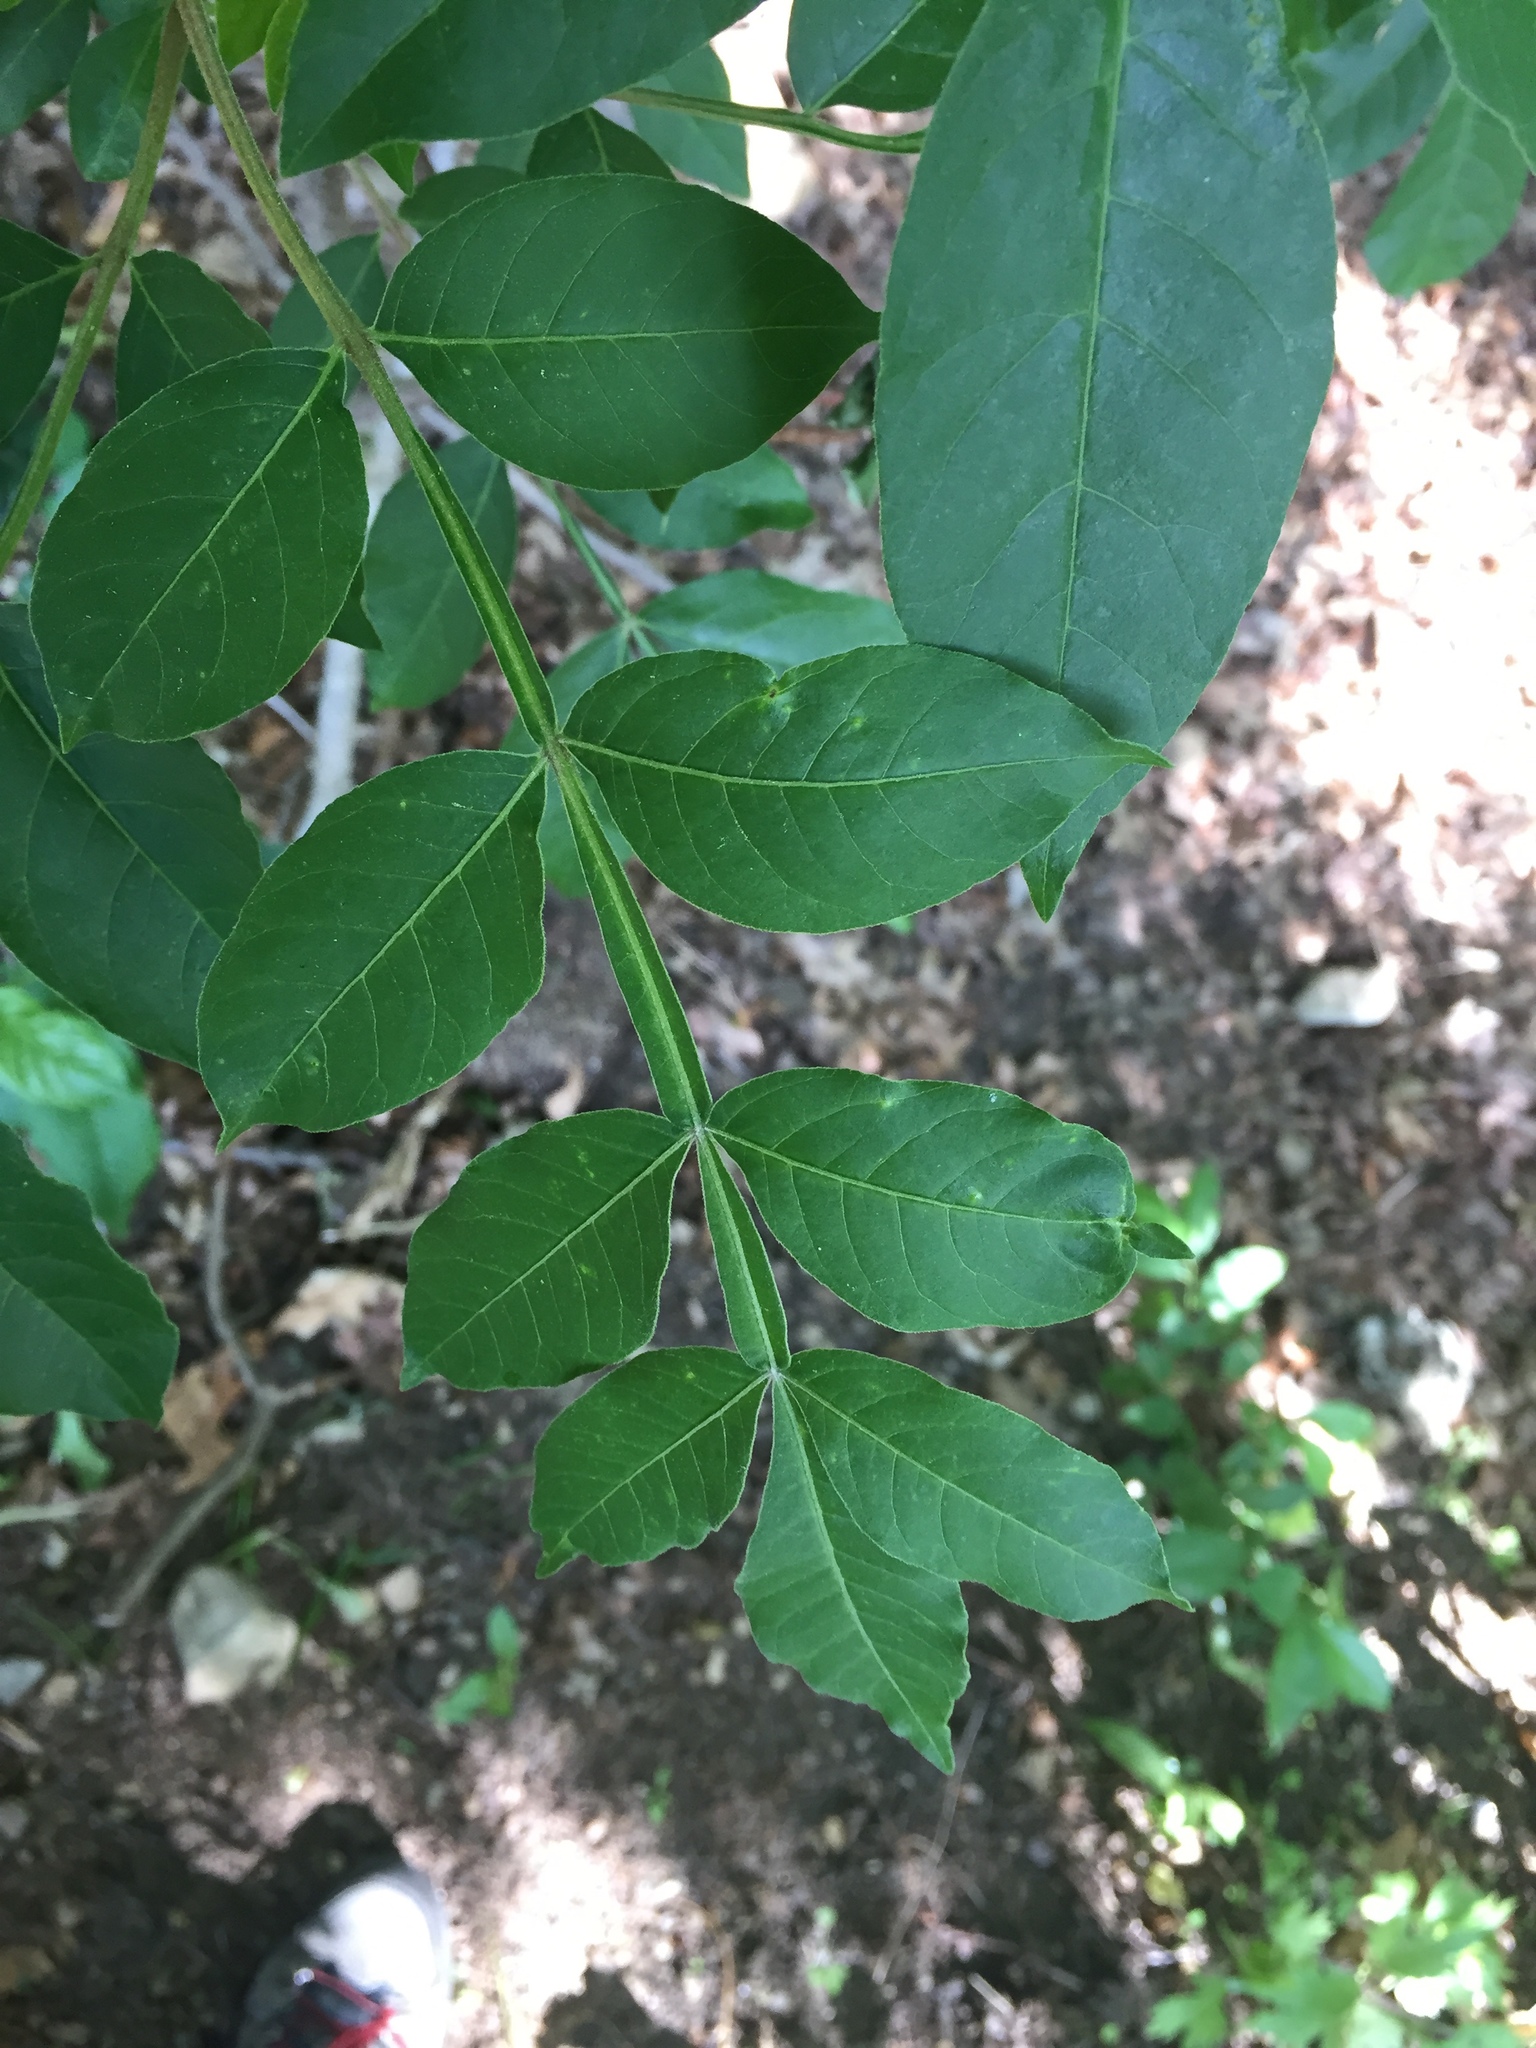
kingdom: Plantae
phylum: Tracheophyta
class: Magnoliopsida
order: Sapindales
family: Anacardiaceae
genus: Rhus
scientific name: Rhus copallina
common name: Shining sumac
